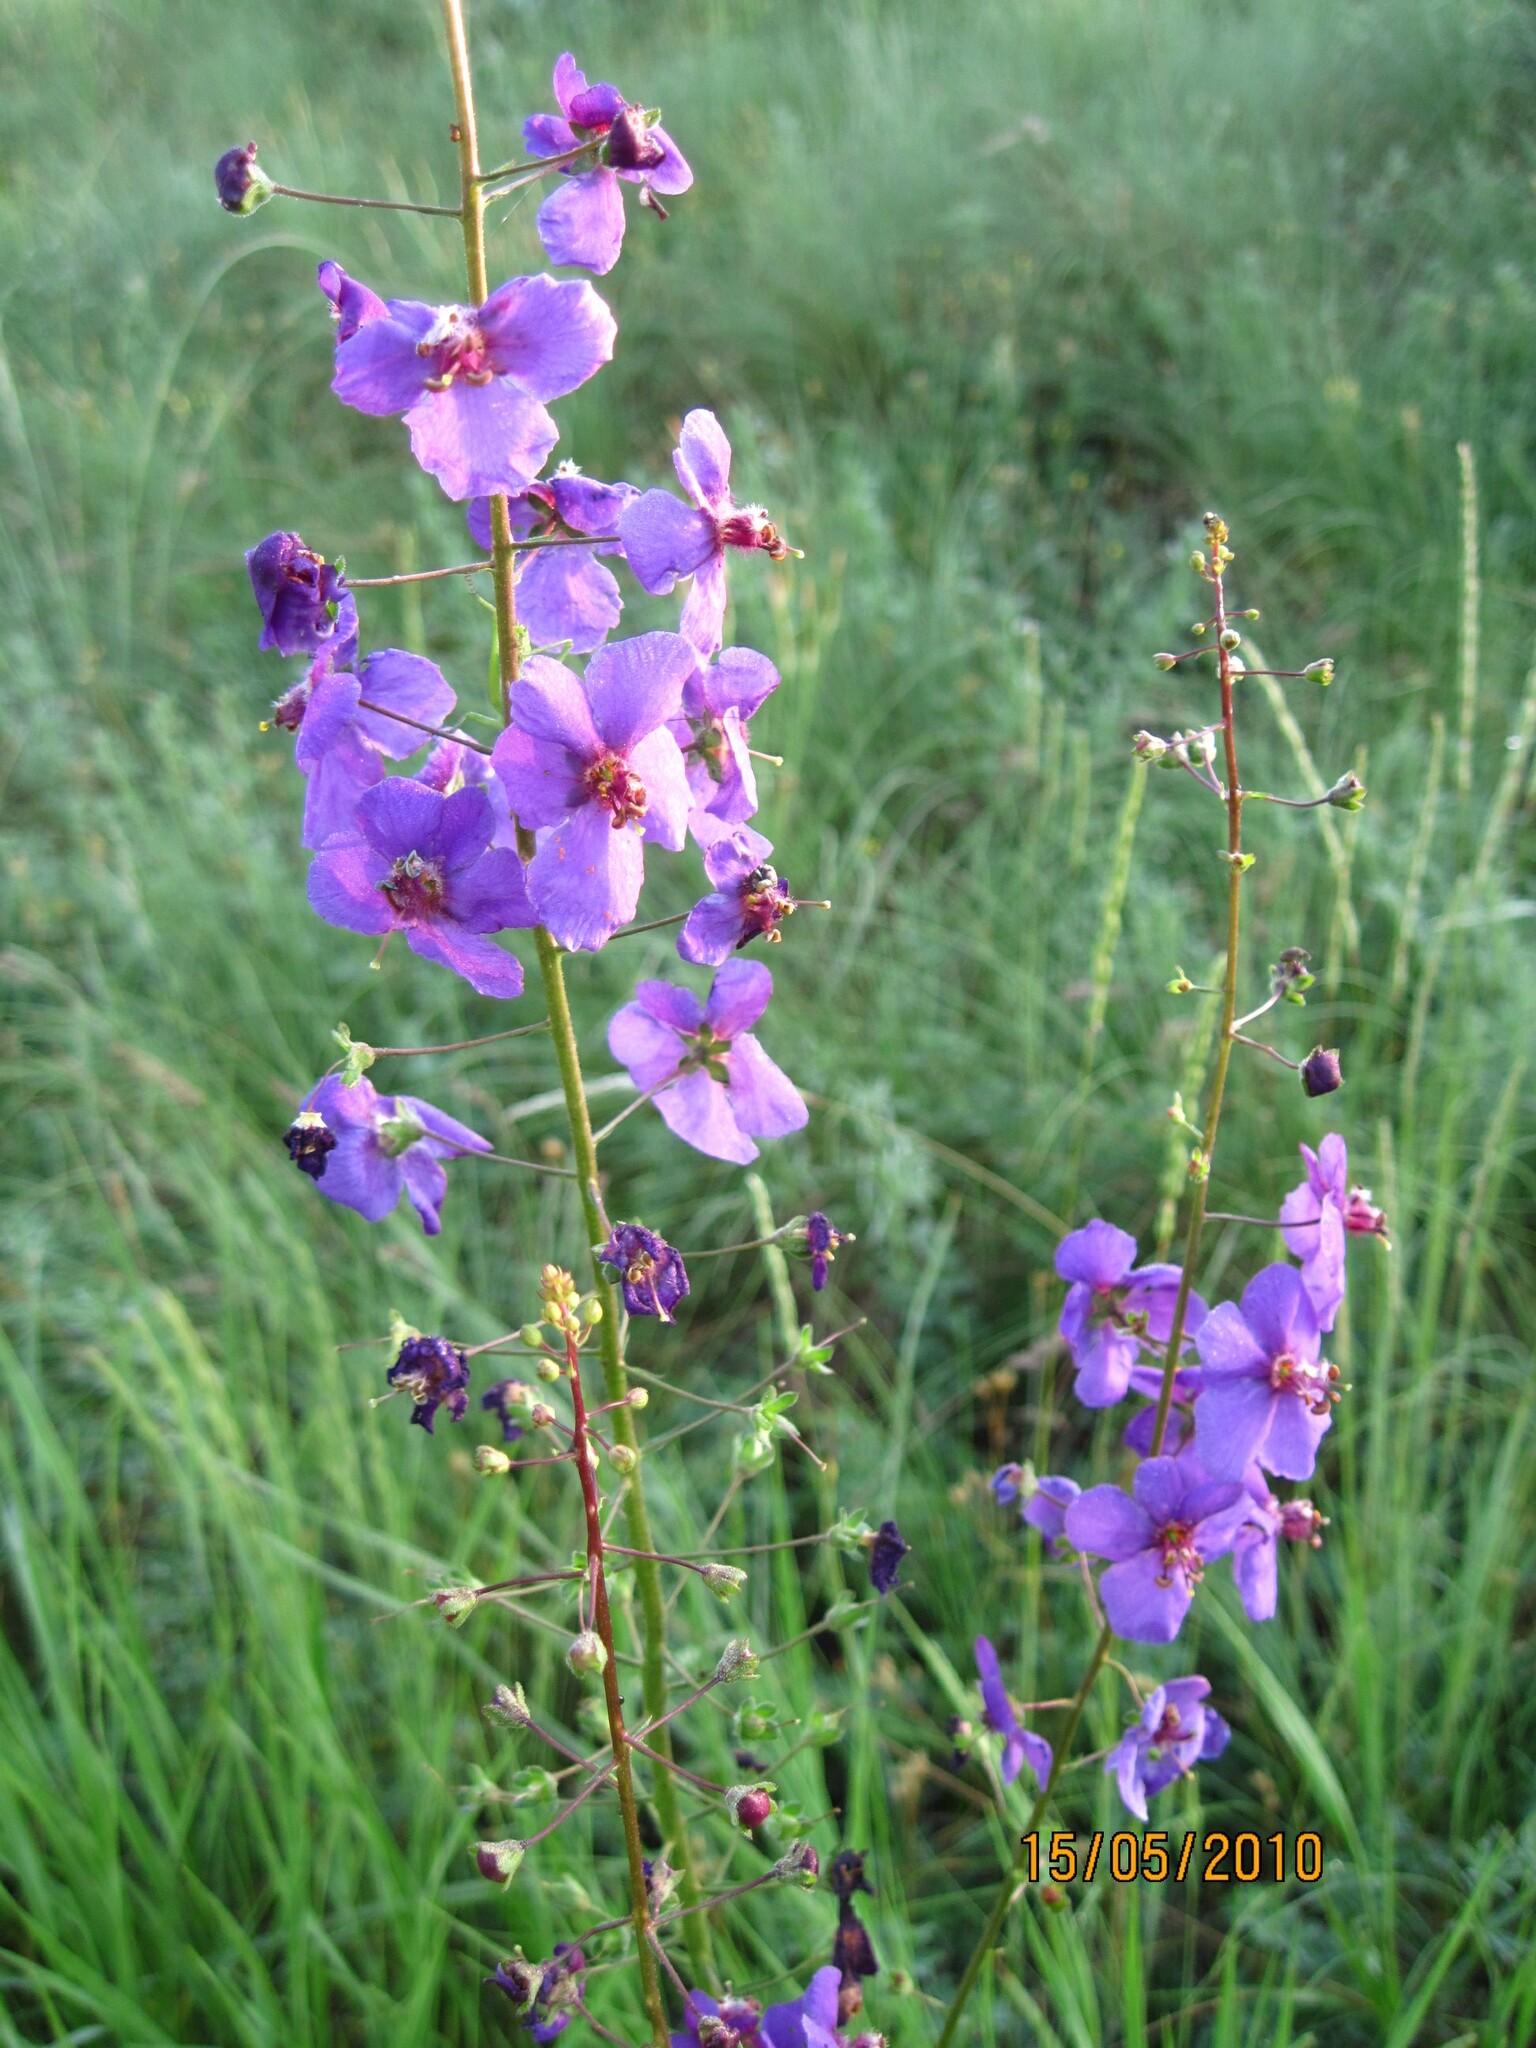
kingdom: Plantae
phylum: Tracheophyta
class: Magnoliopsida
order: Lamiales
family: Scrophulariaceae
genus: Verbascum
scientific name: Verbascum phoeniceum
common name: Purple mullein
